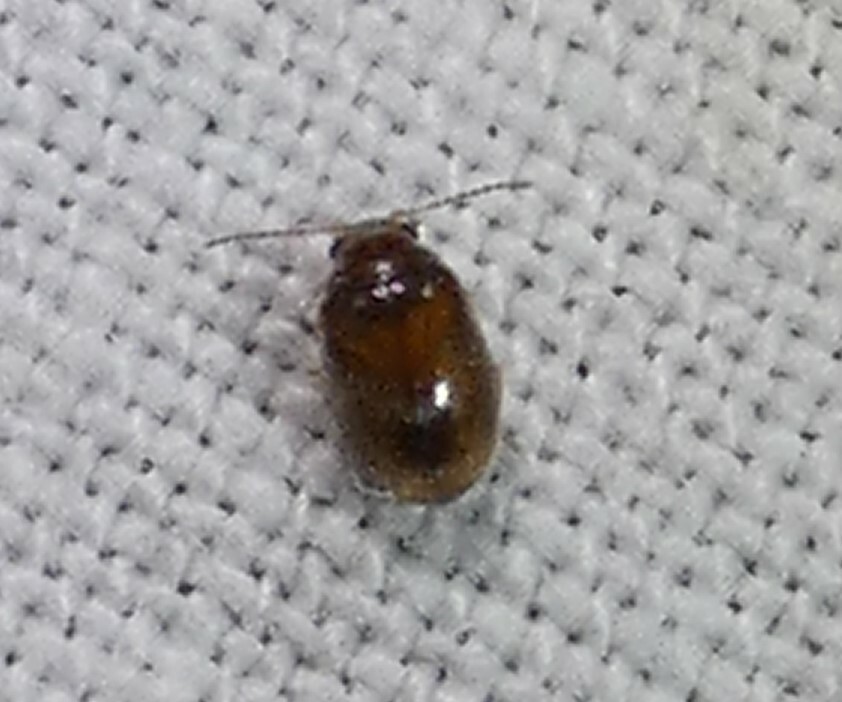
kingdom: Animalia
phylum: Arthropoda
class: Insecta
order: Coleoptera
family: Scirtidae
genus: Contacyphon
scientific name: Contacyphon
